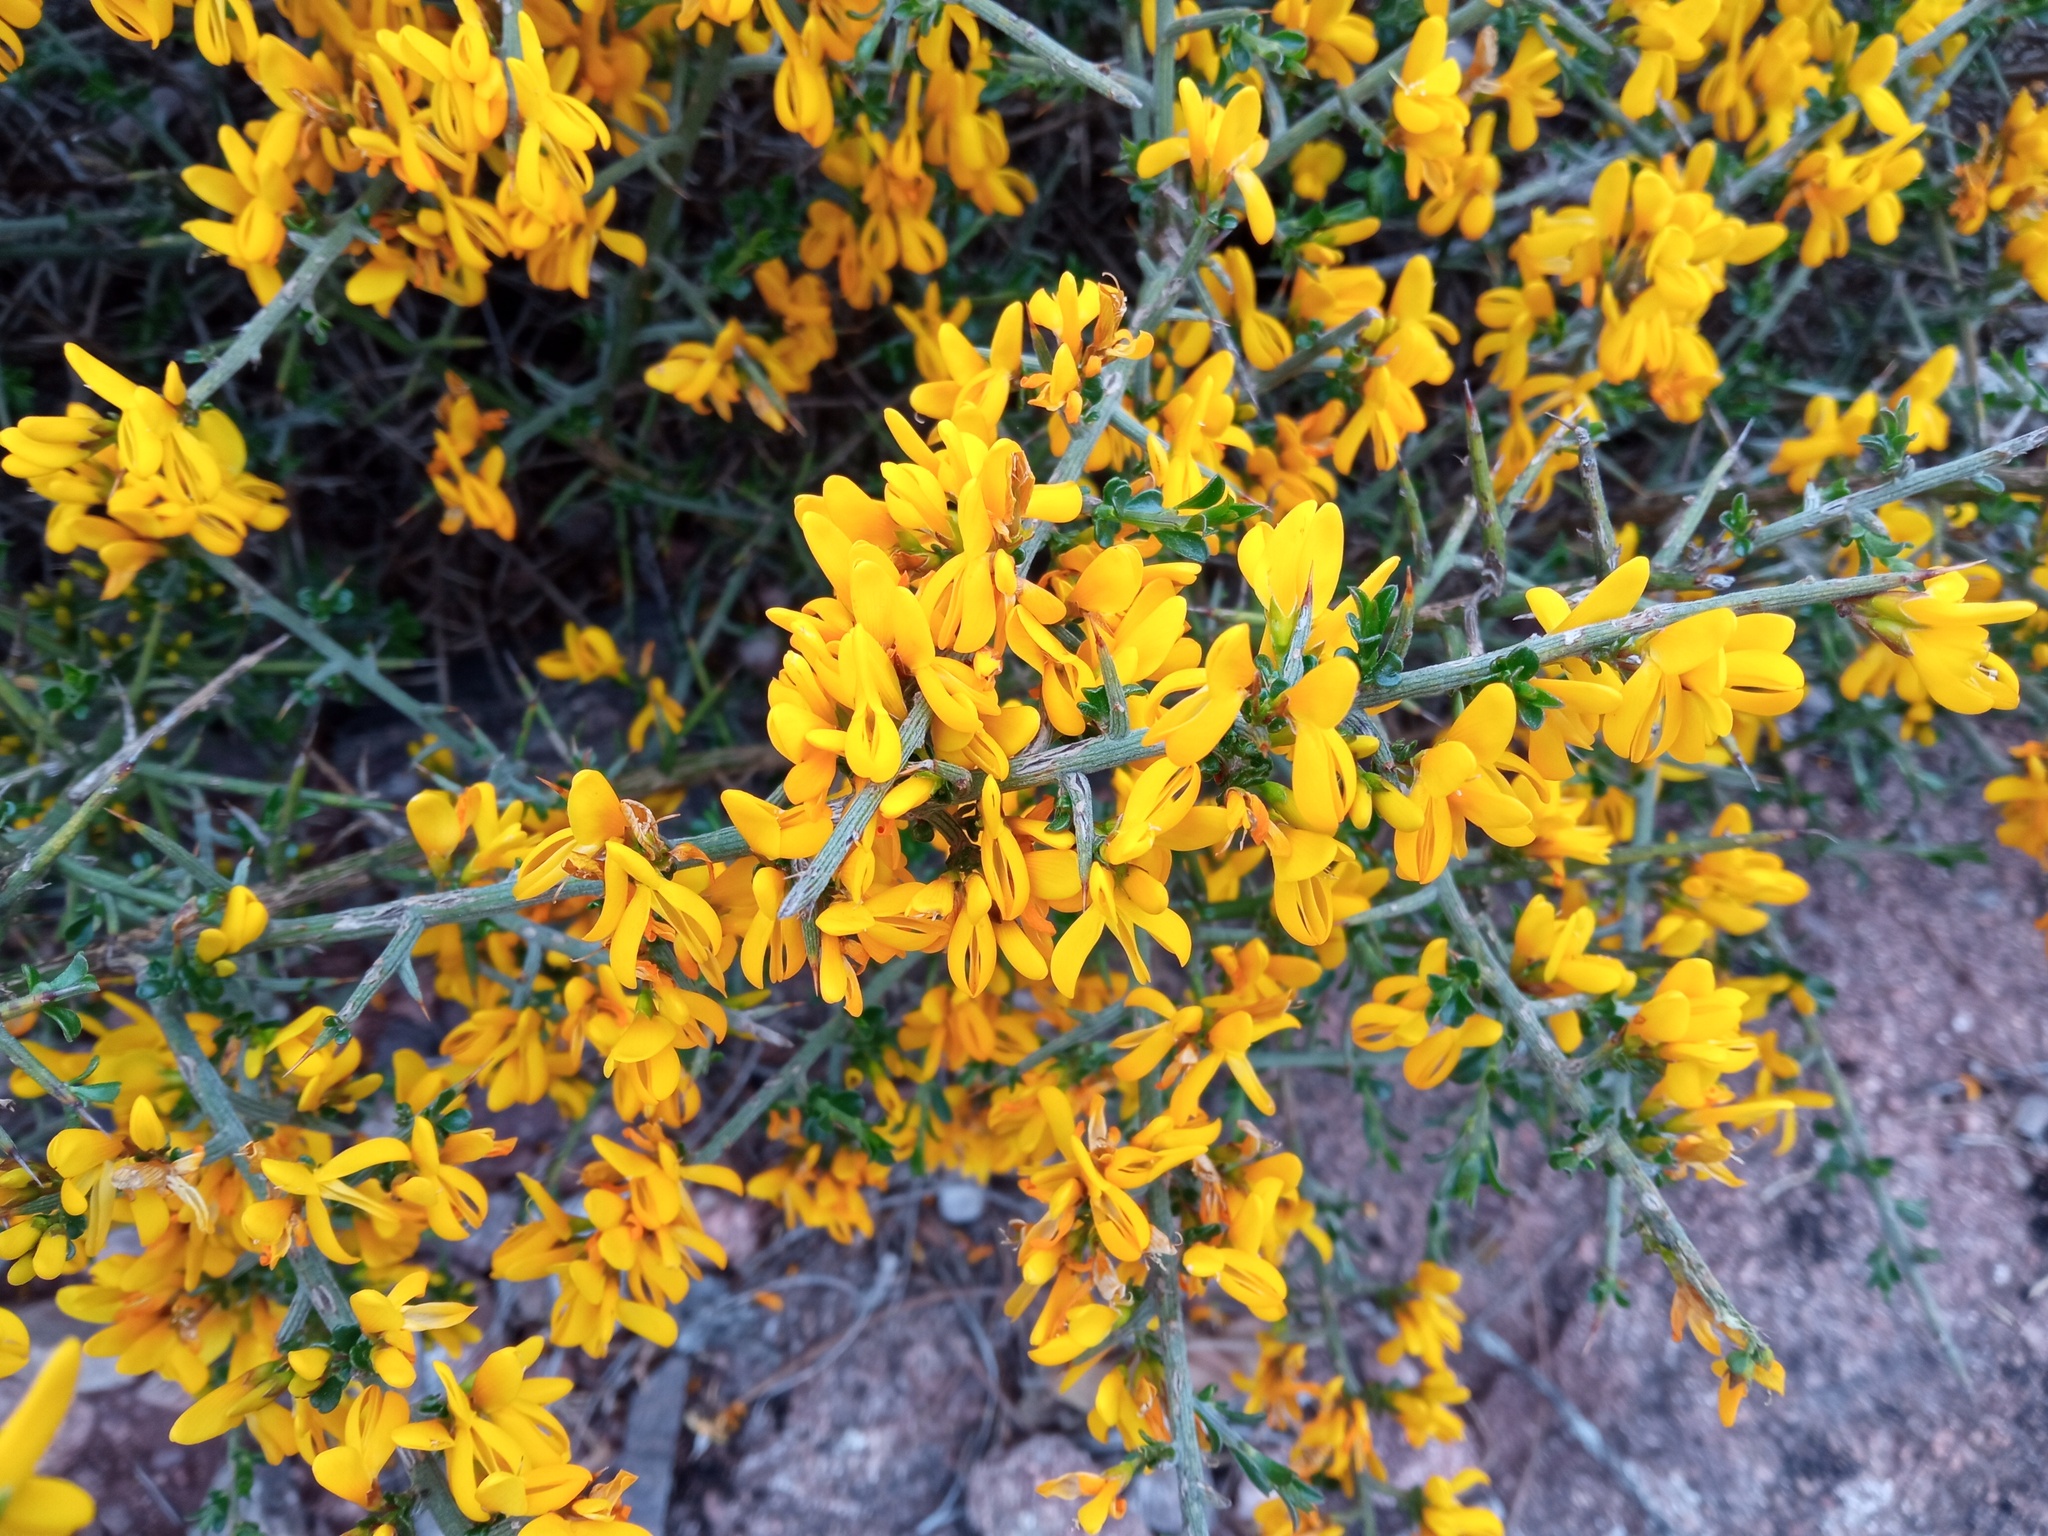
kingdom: Plantae
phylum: Tracheophyta
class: Magnoliopsida
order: Fabales
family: Fabaceae
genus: Genista
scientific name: Genista scorpius
